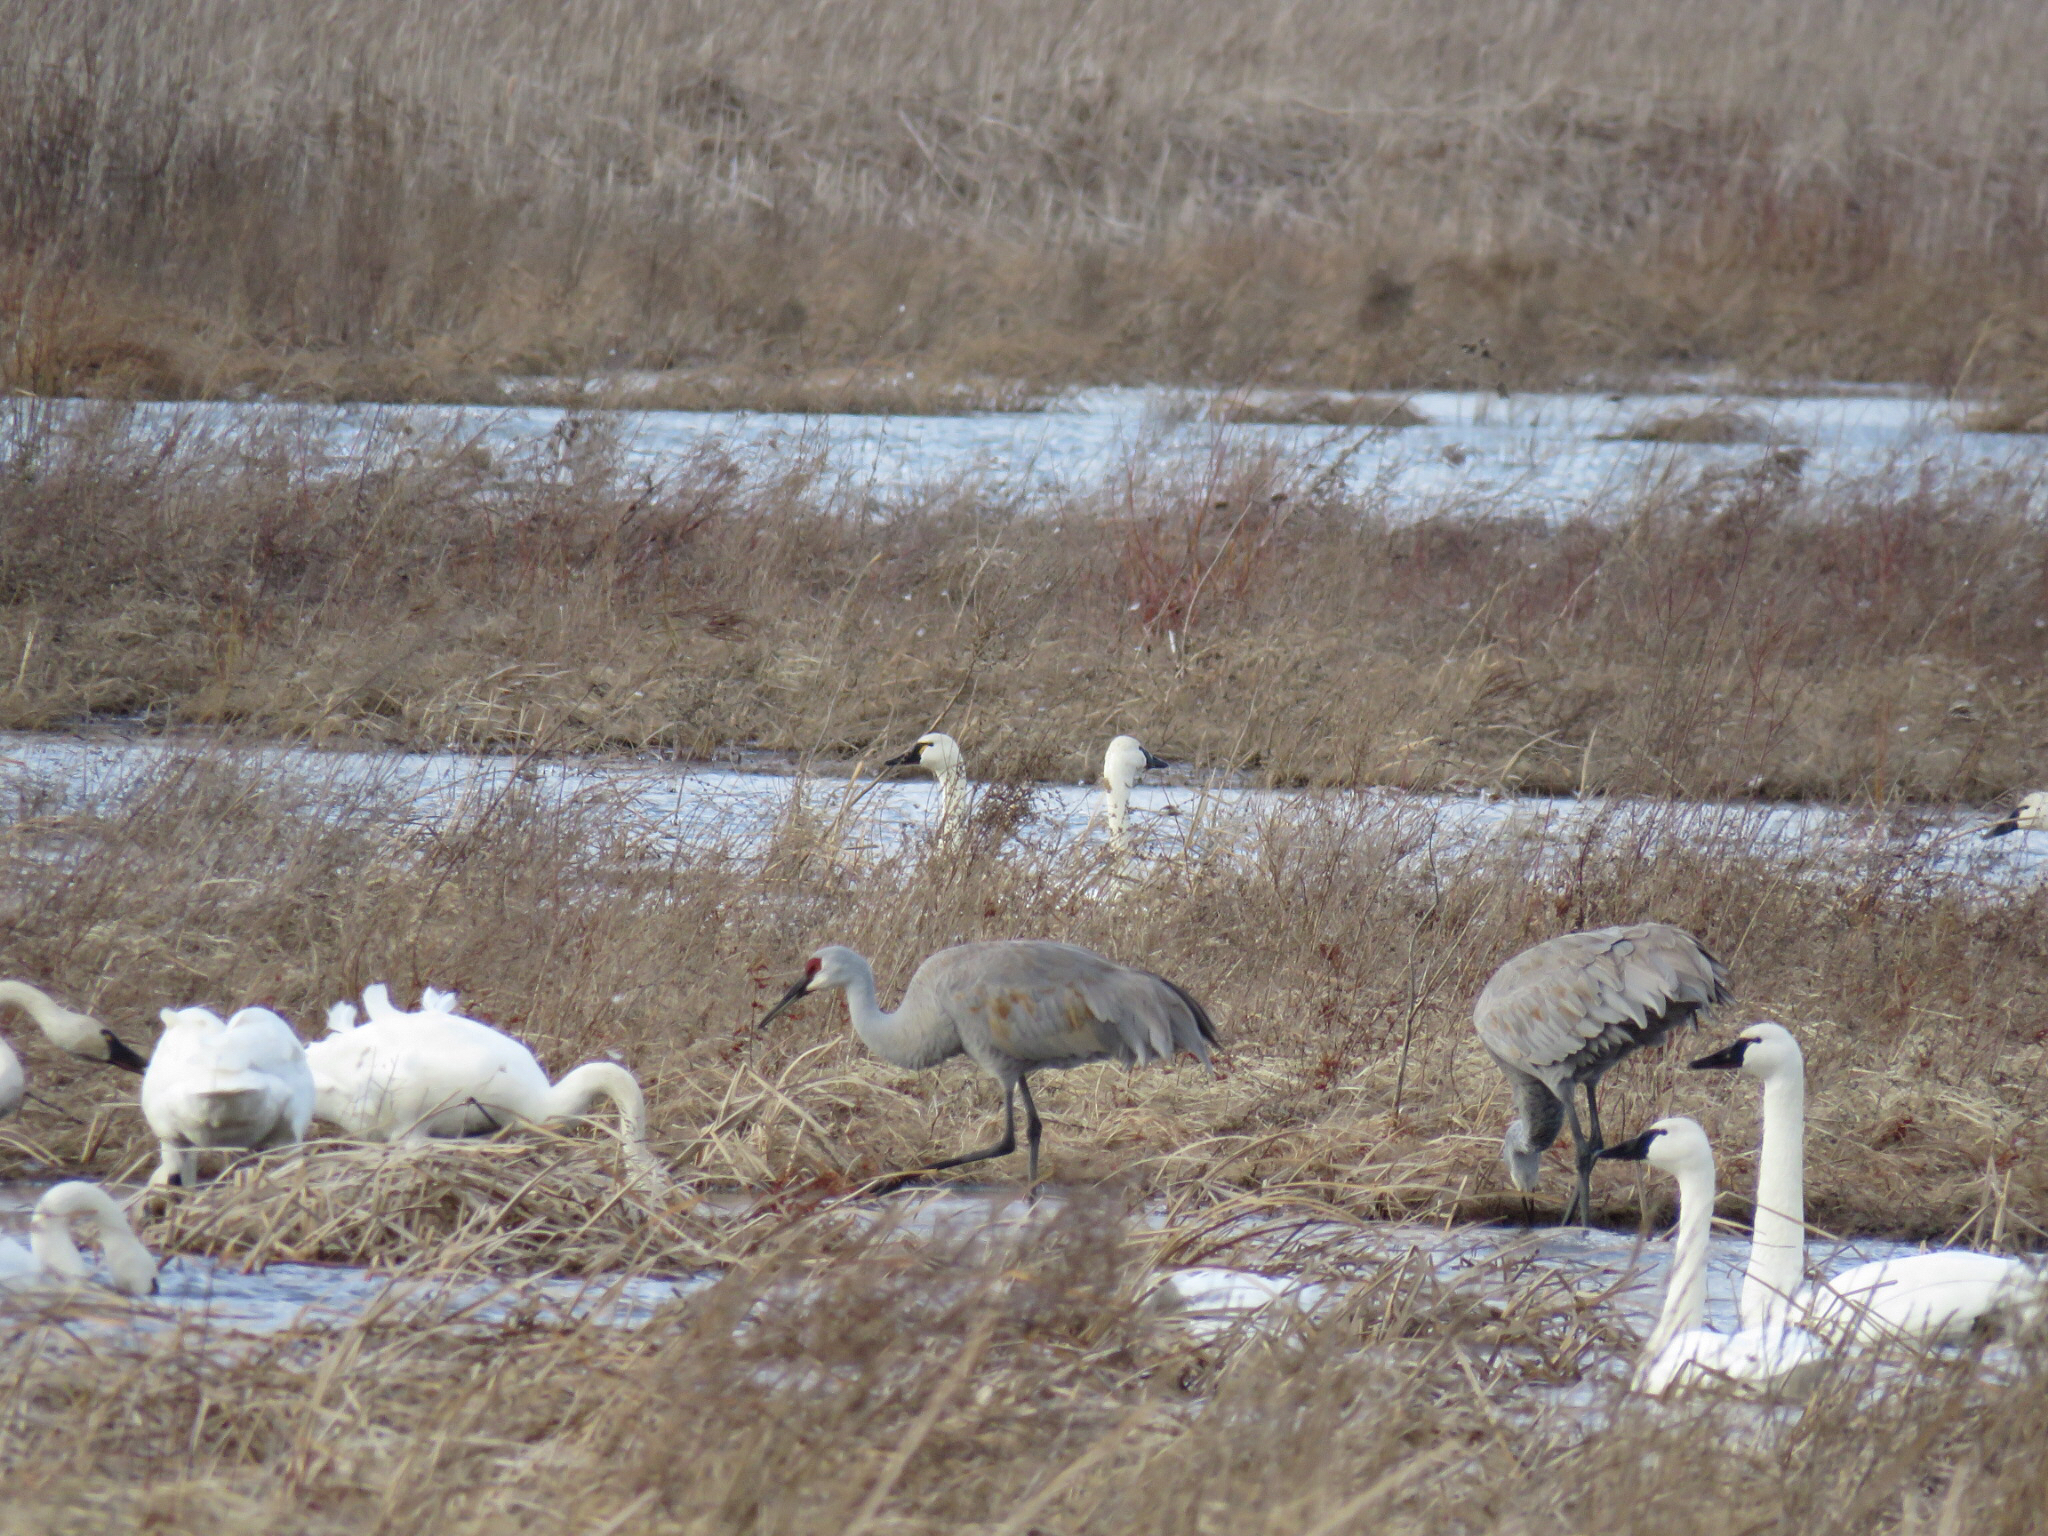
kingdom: Animalia
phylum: Chordata
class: Aves
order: Gruiformes
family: Gruidae
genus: Grus
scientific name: Grus canadensis
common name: Sandhill crane
